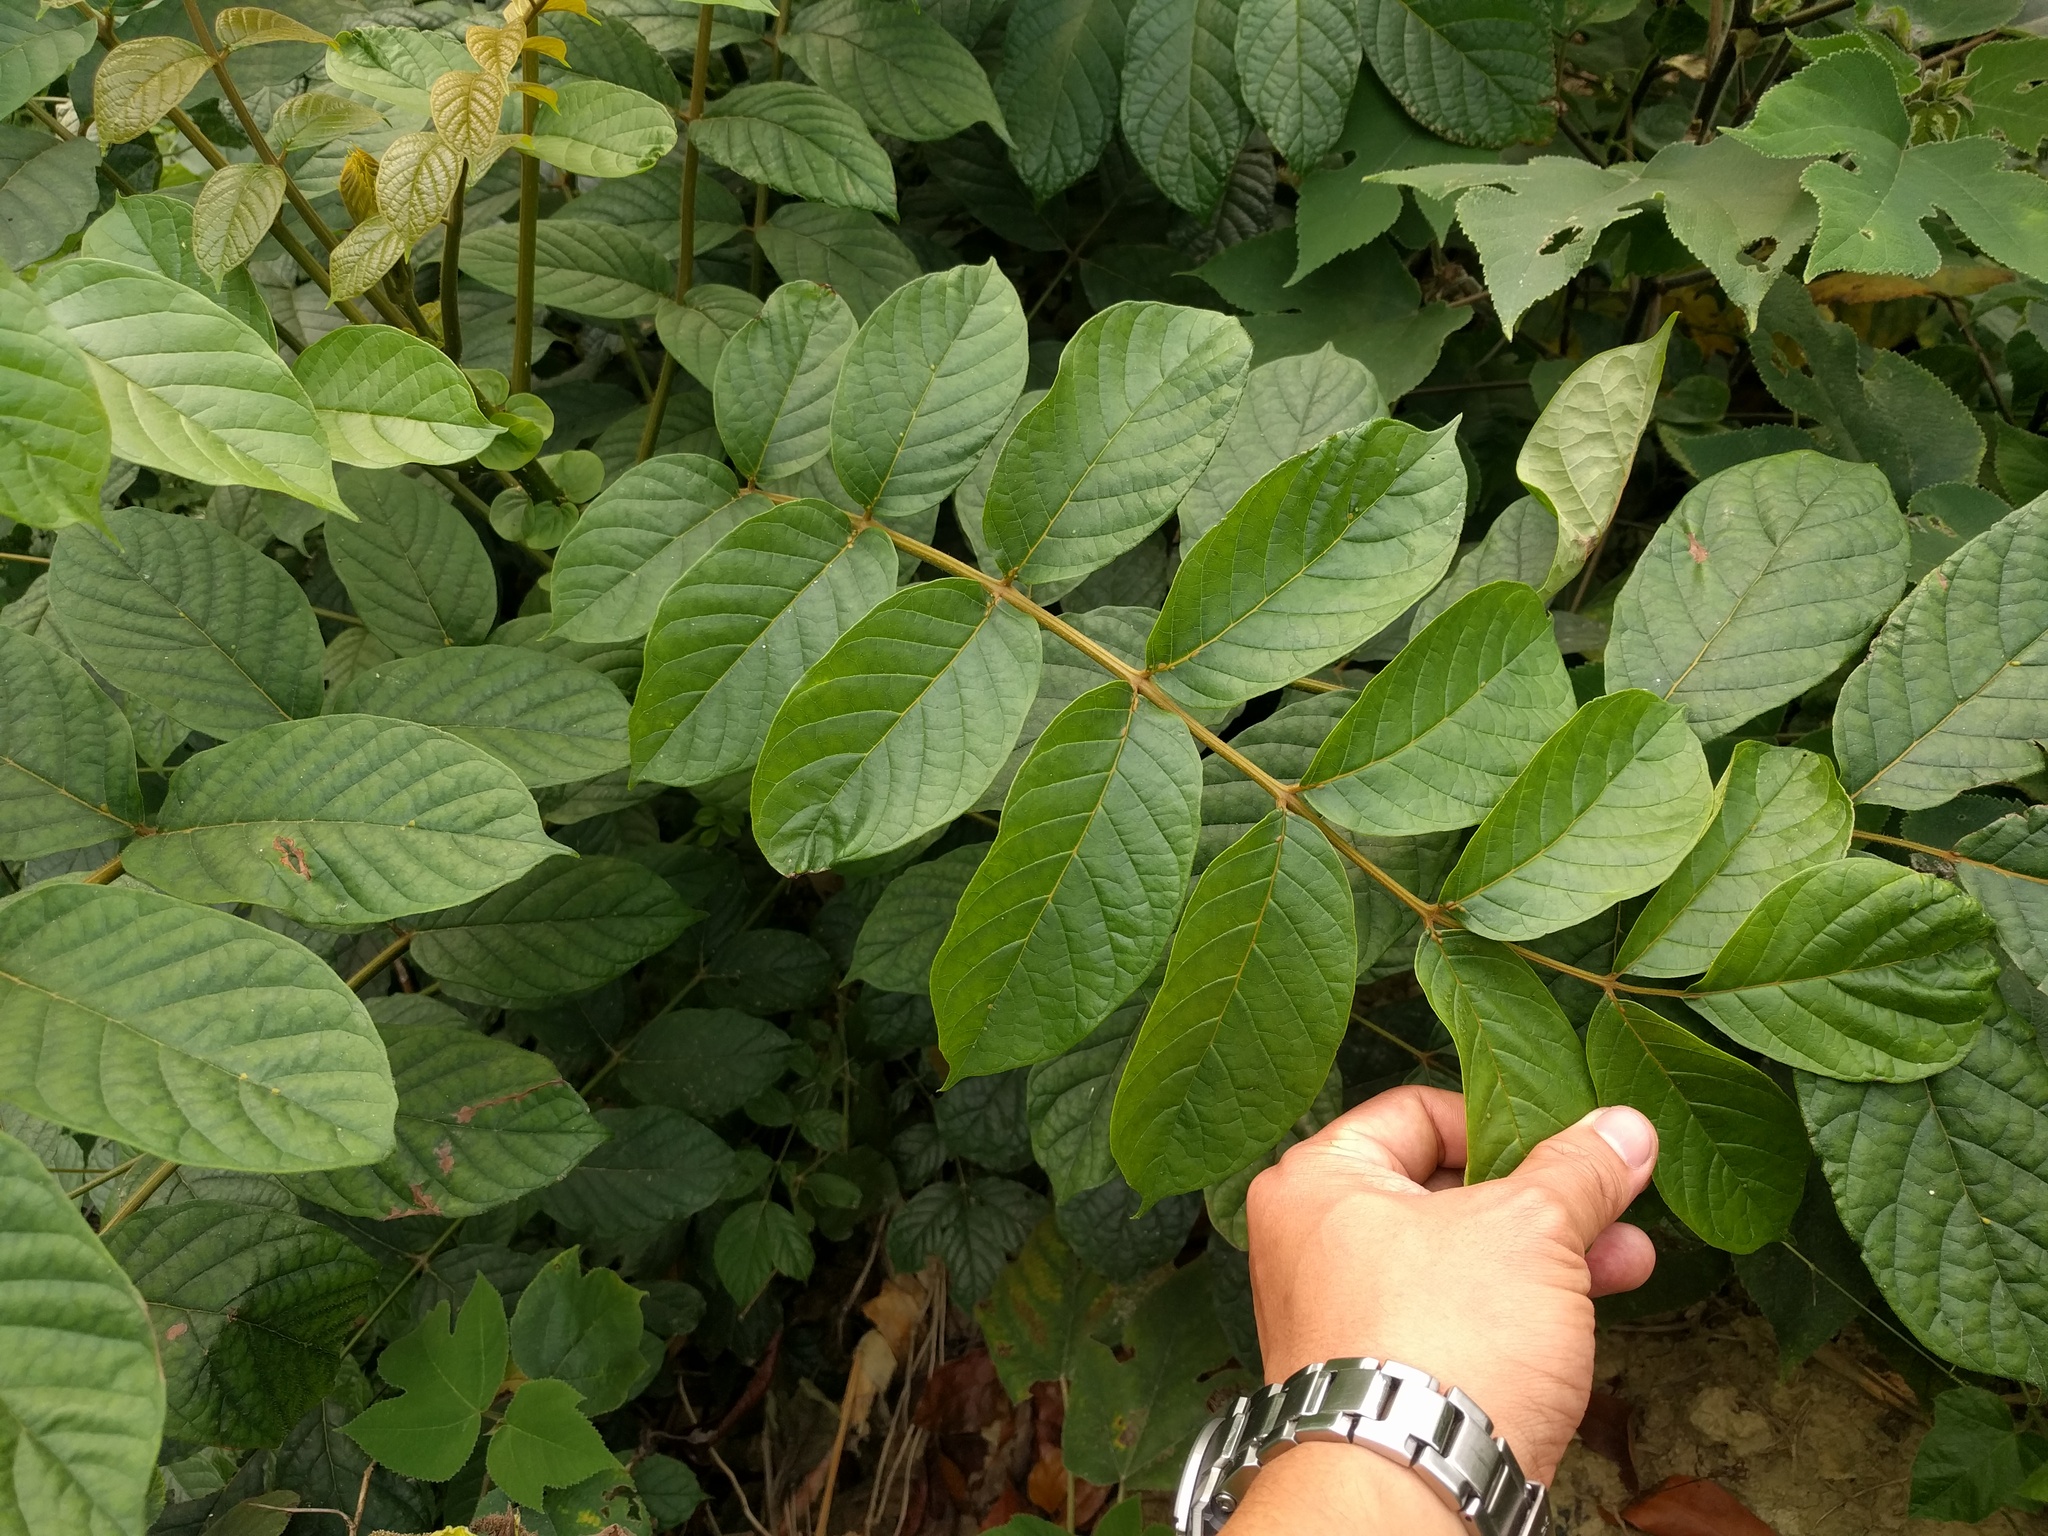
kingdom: Plantae
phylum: Tracheophyta
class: Magnoliopsida
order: Lamiales
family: Bignoniaceae
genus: Spathodea
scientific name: Spathodea campanulata
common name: African tuliptree
